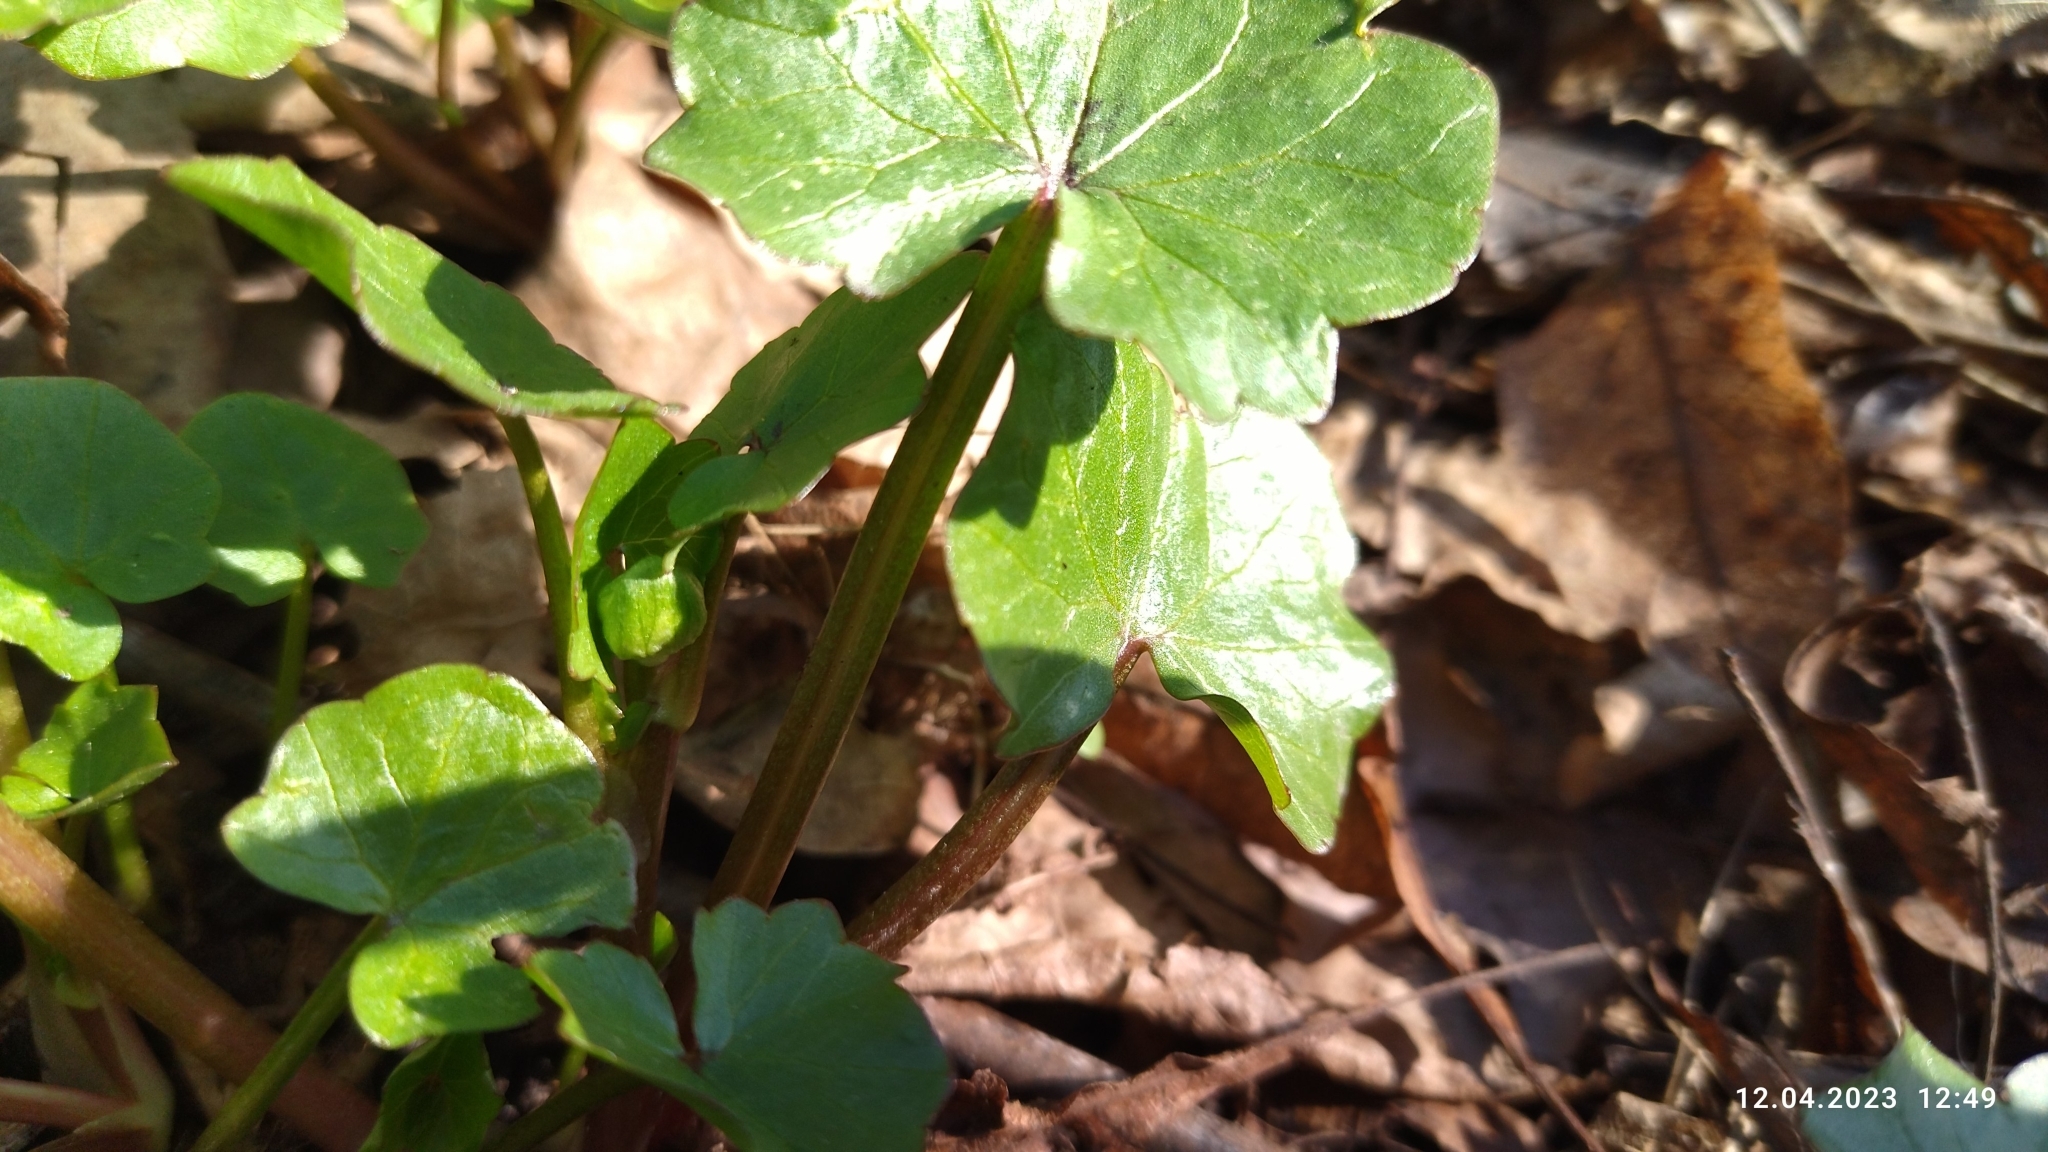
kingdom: Plantae
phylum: Tracheophyta
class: Magnoliopsida
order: Ranunculales
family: Ranunculaceae
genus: Ficaria
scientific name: Ficaria verna
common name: Lesser celandine
